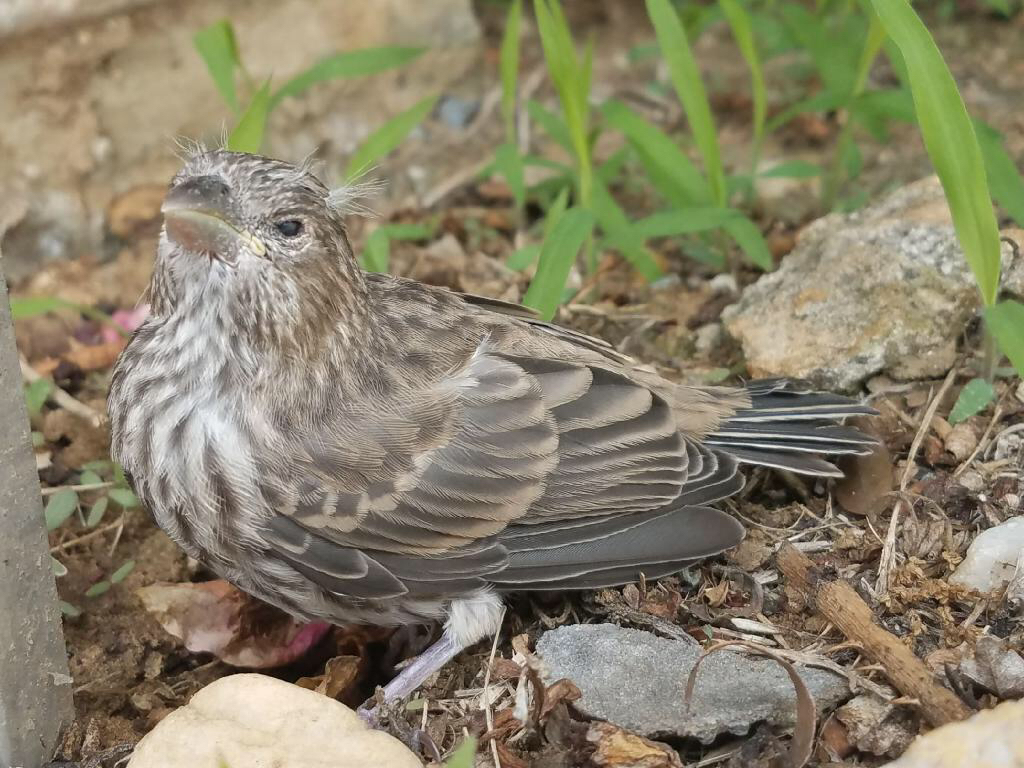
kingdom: Animalia
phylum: Chordata
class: Aves
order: Passeriformes
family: Fringillidae
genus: Haemorhous
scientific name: Haemorhous mexicanus
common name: House finch
